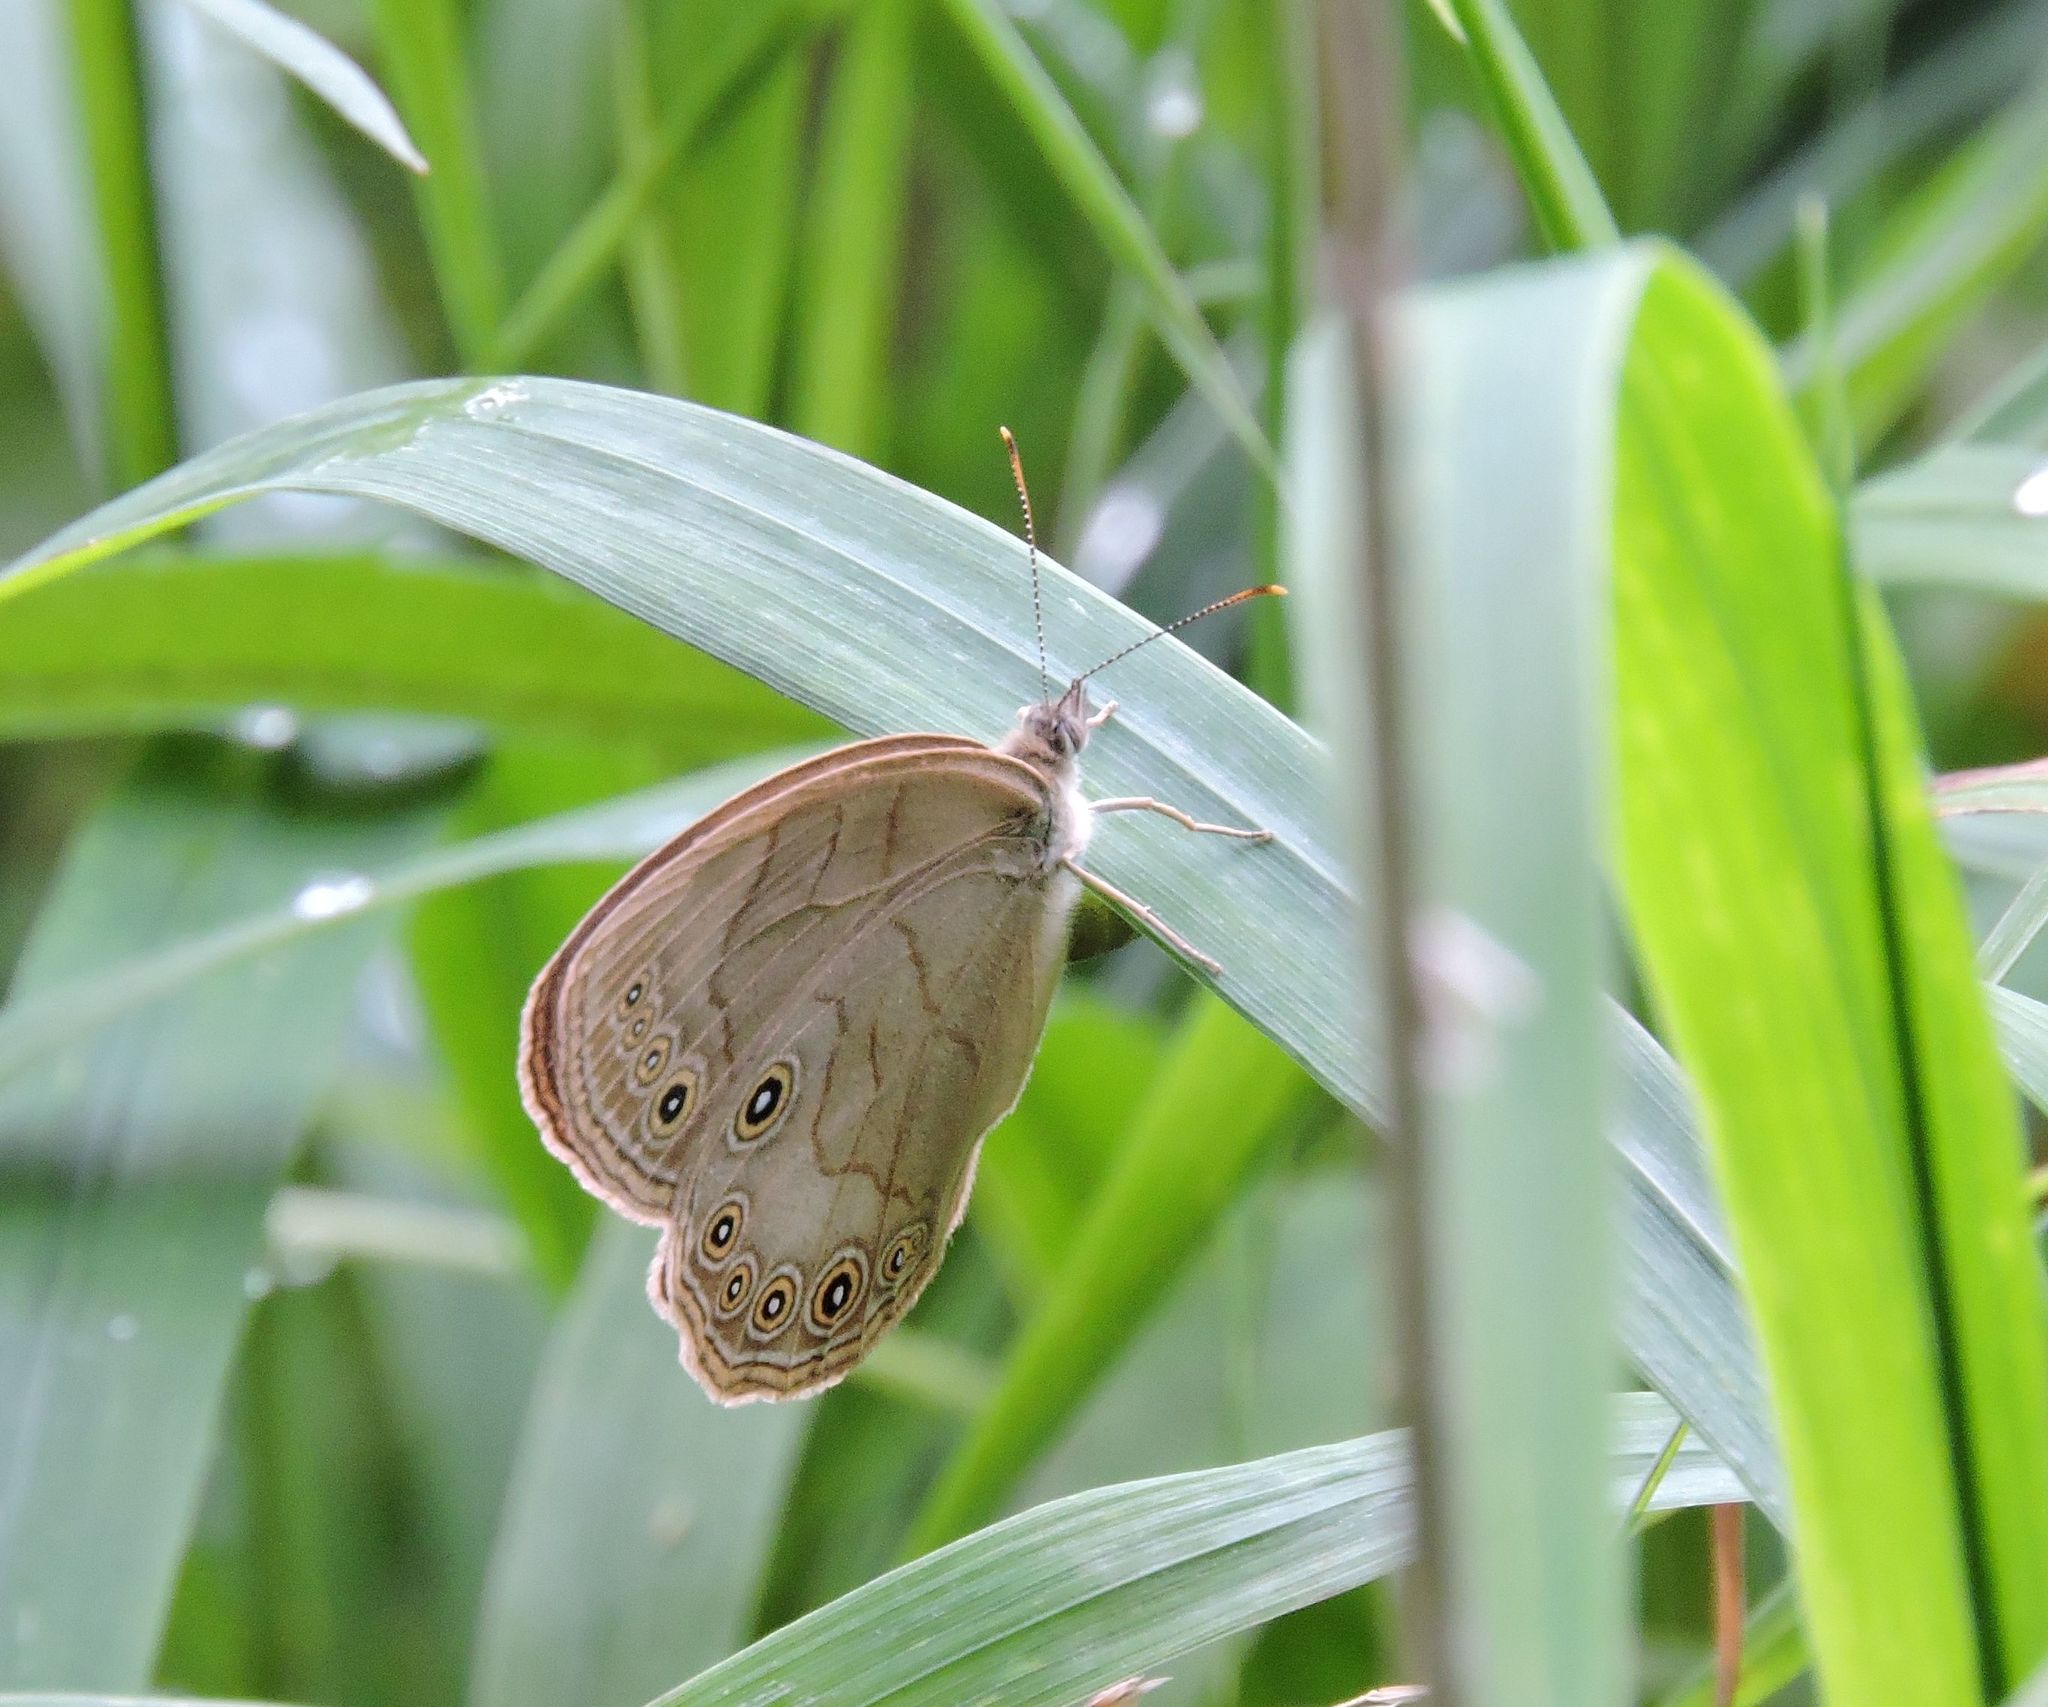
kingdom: Animalia
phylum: Arthropoda
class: Insecta
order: Lepidoptera
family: Nymphalidae
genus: Lethe
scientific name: Lethe eurydice
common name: Eyed brown
